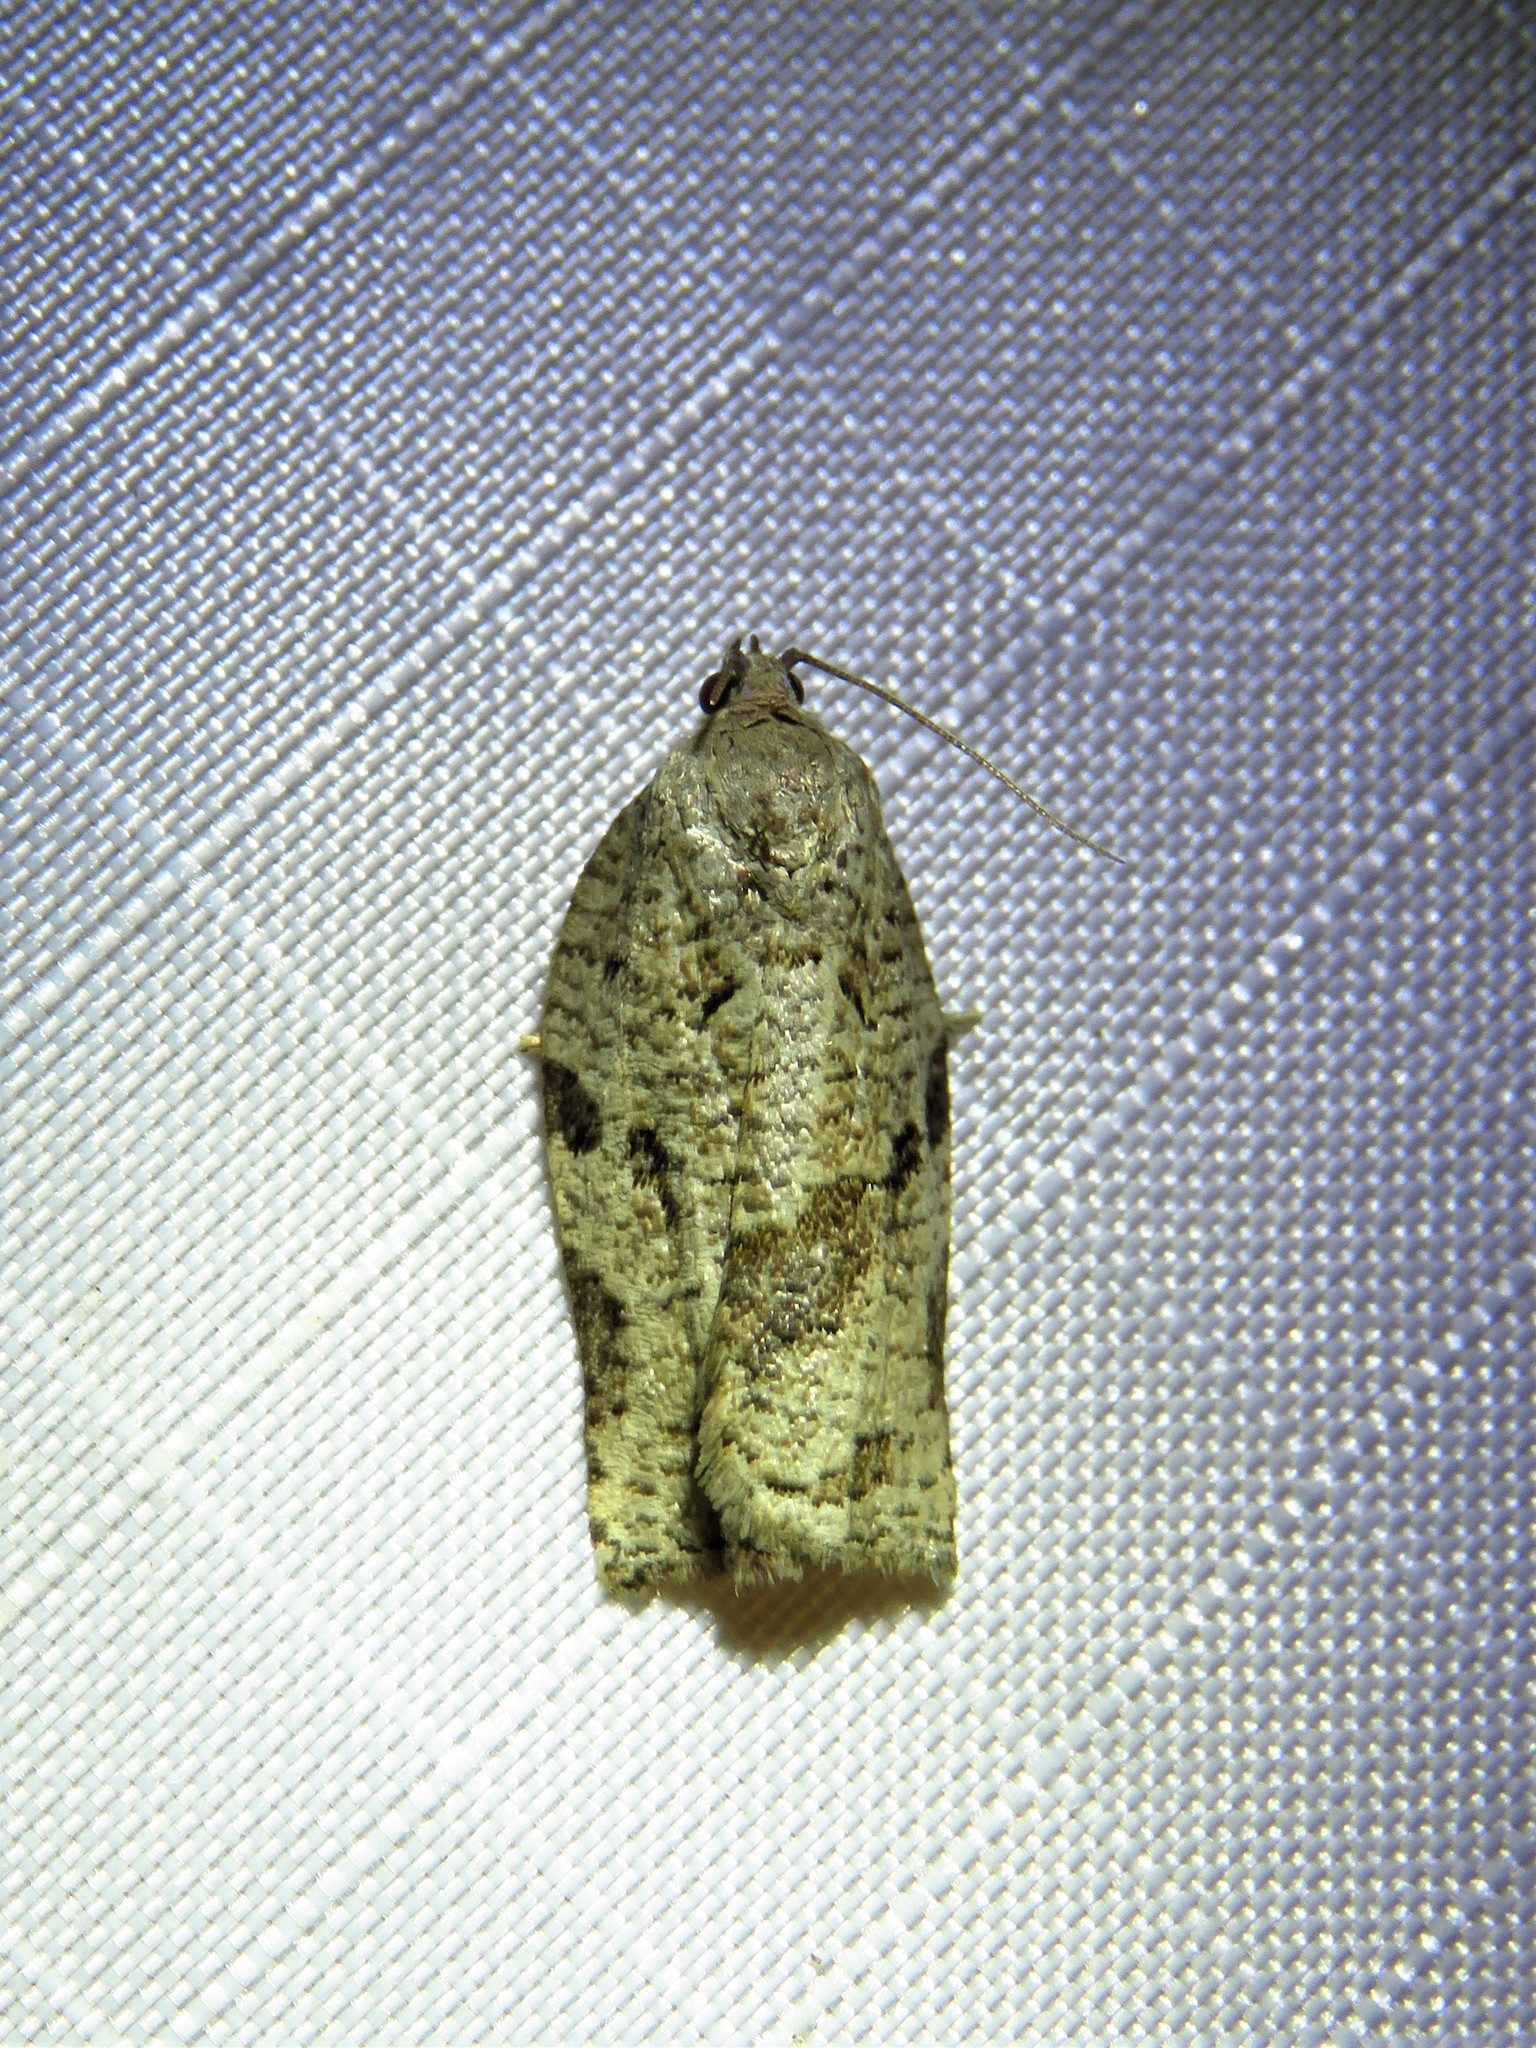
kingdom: Animalia
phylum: Arthropoda
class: Insecta
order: Lepidoptera
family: Tortricidae
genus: Archips
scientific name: Archips grisea
